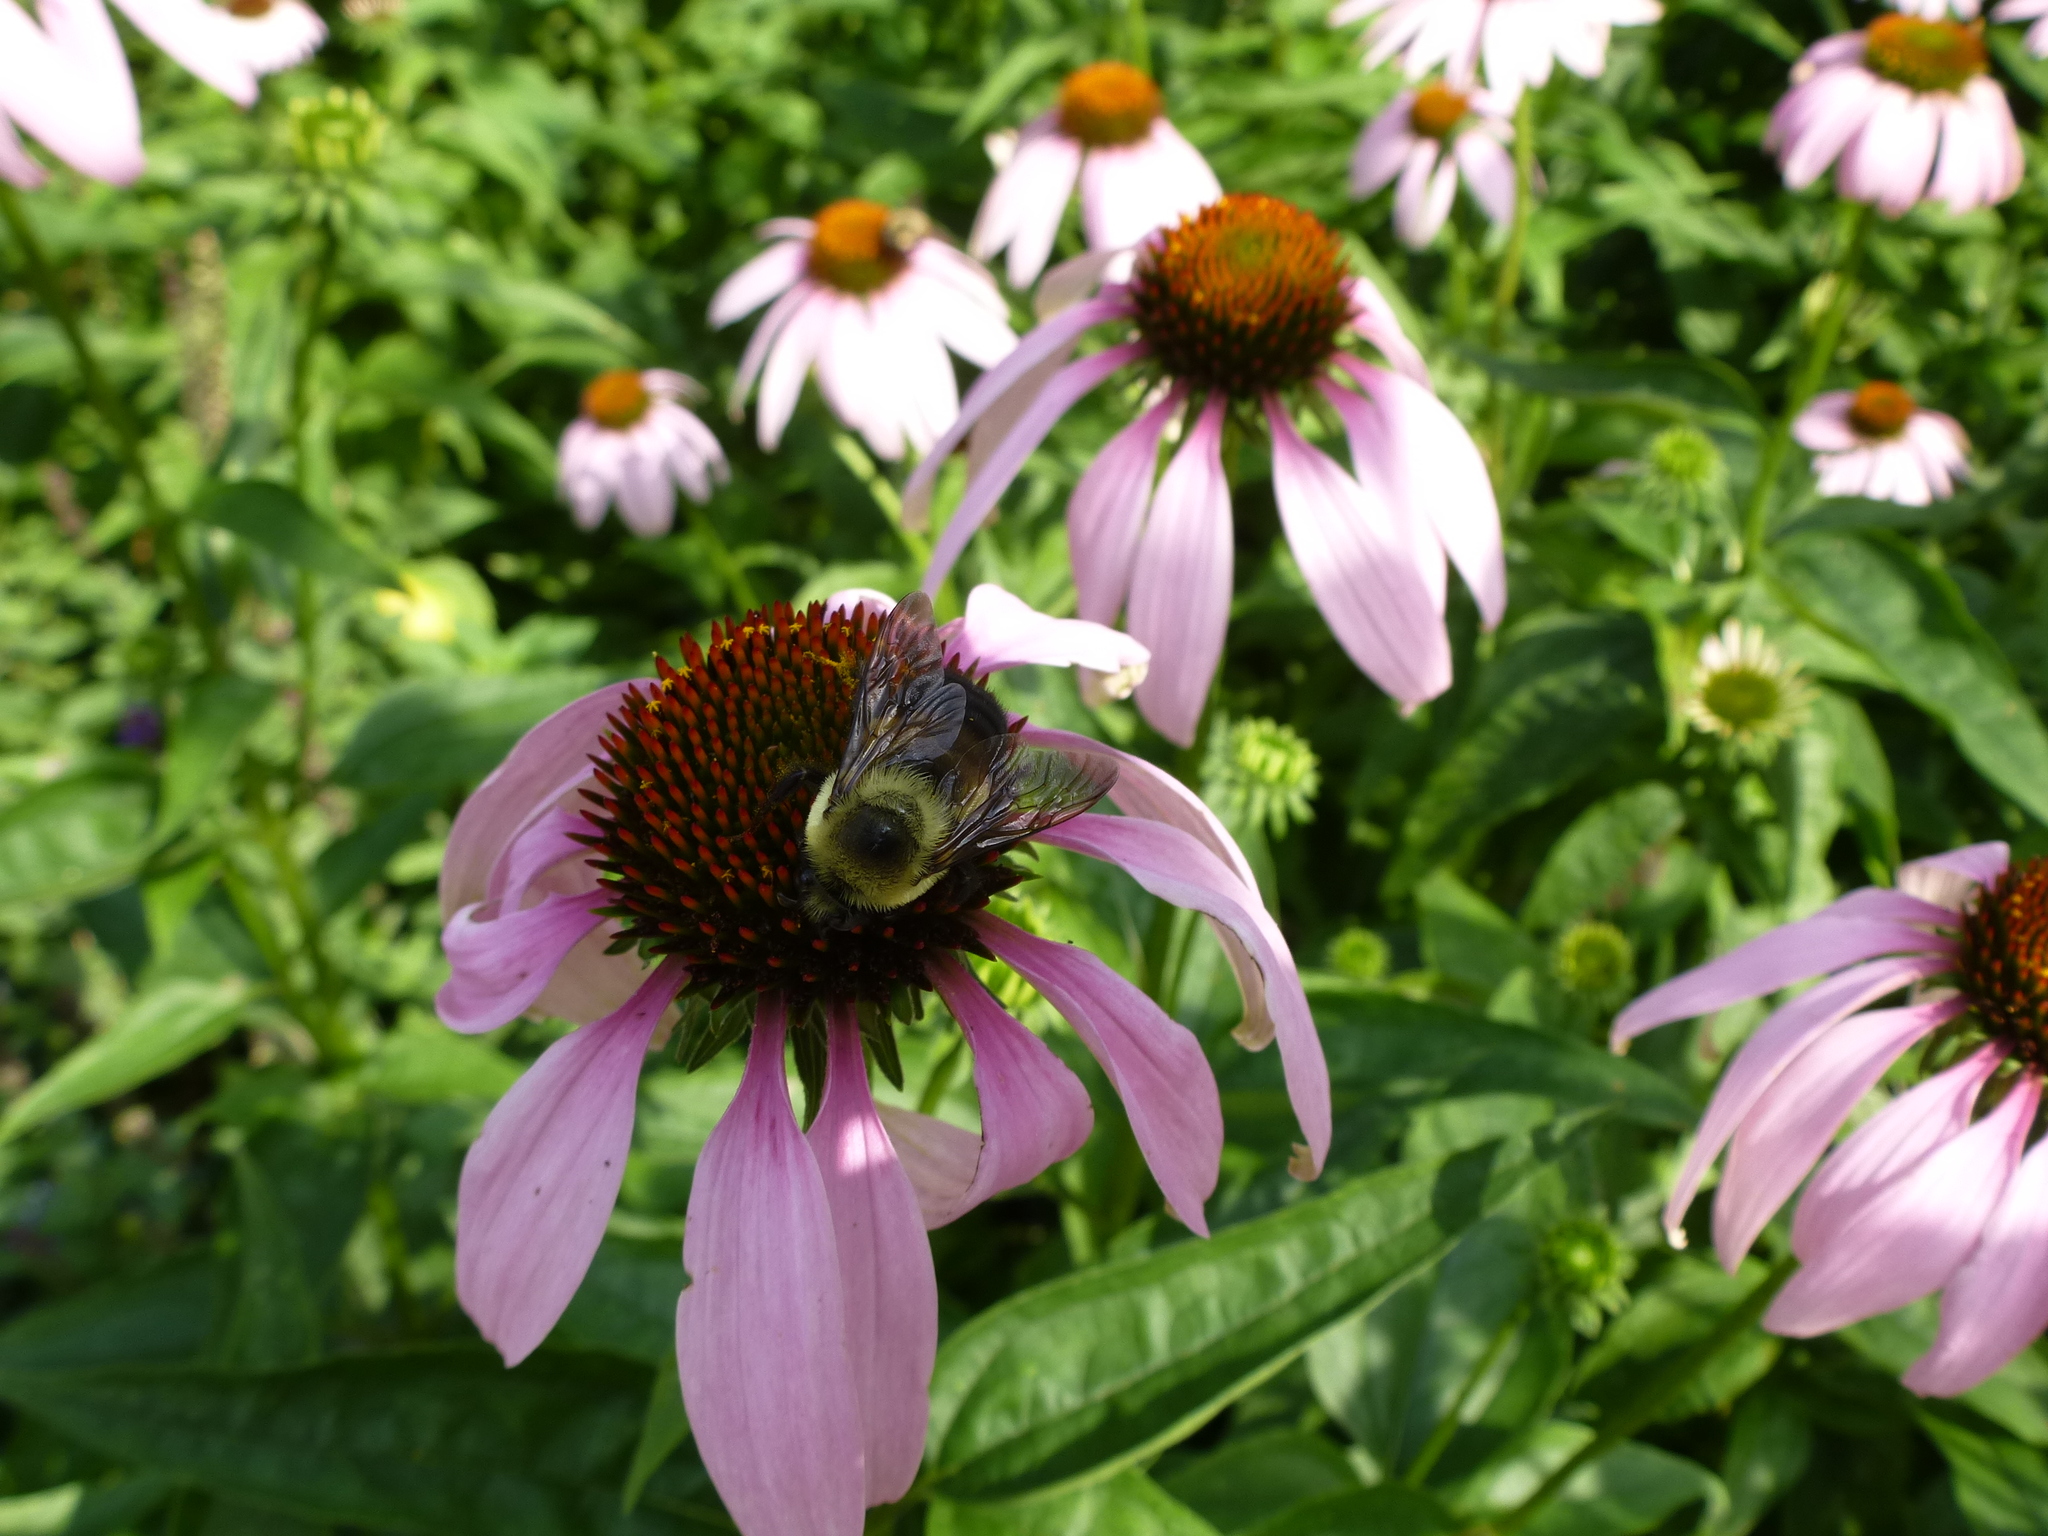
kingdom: Animalia
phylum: Arthropoda
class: Insecta
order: Hymenoptera
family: Apidae
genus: Bombus
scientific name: Bombus griseocollis
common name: Brown-belted bumble bee
